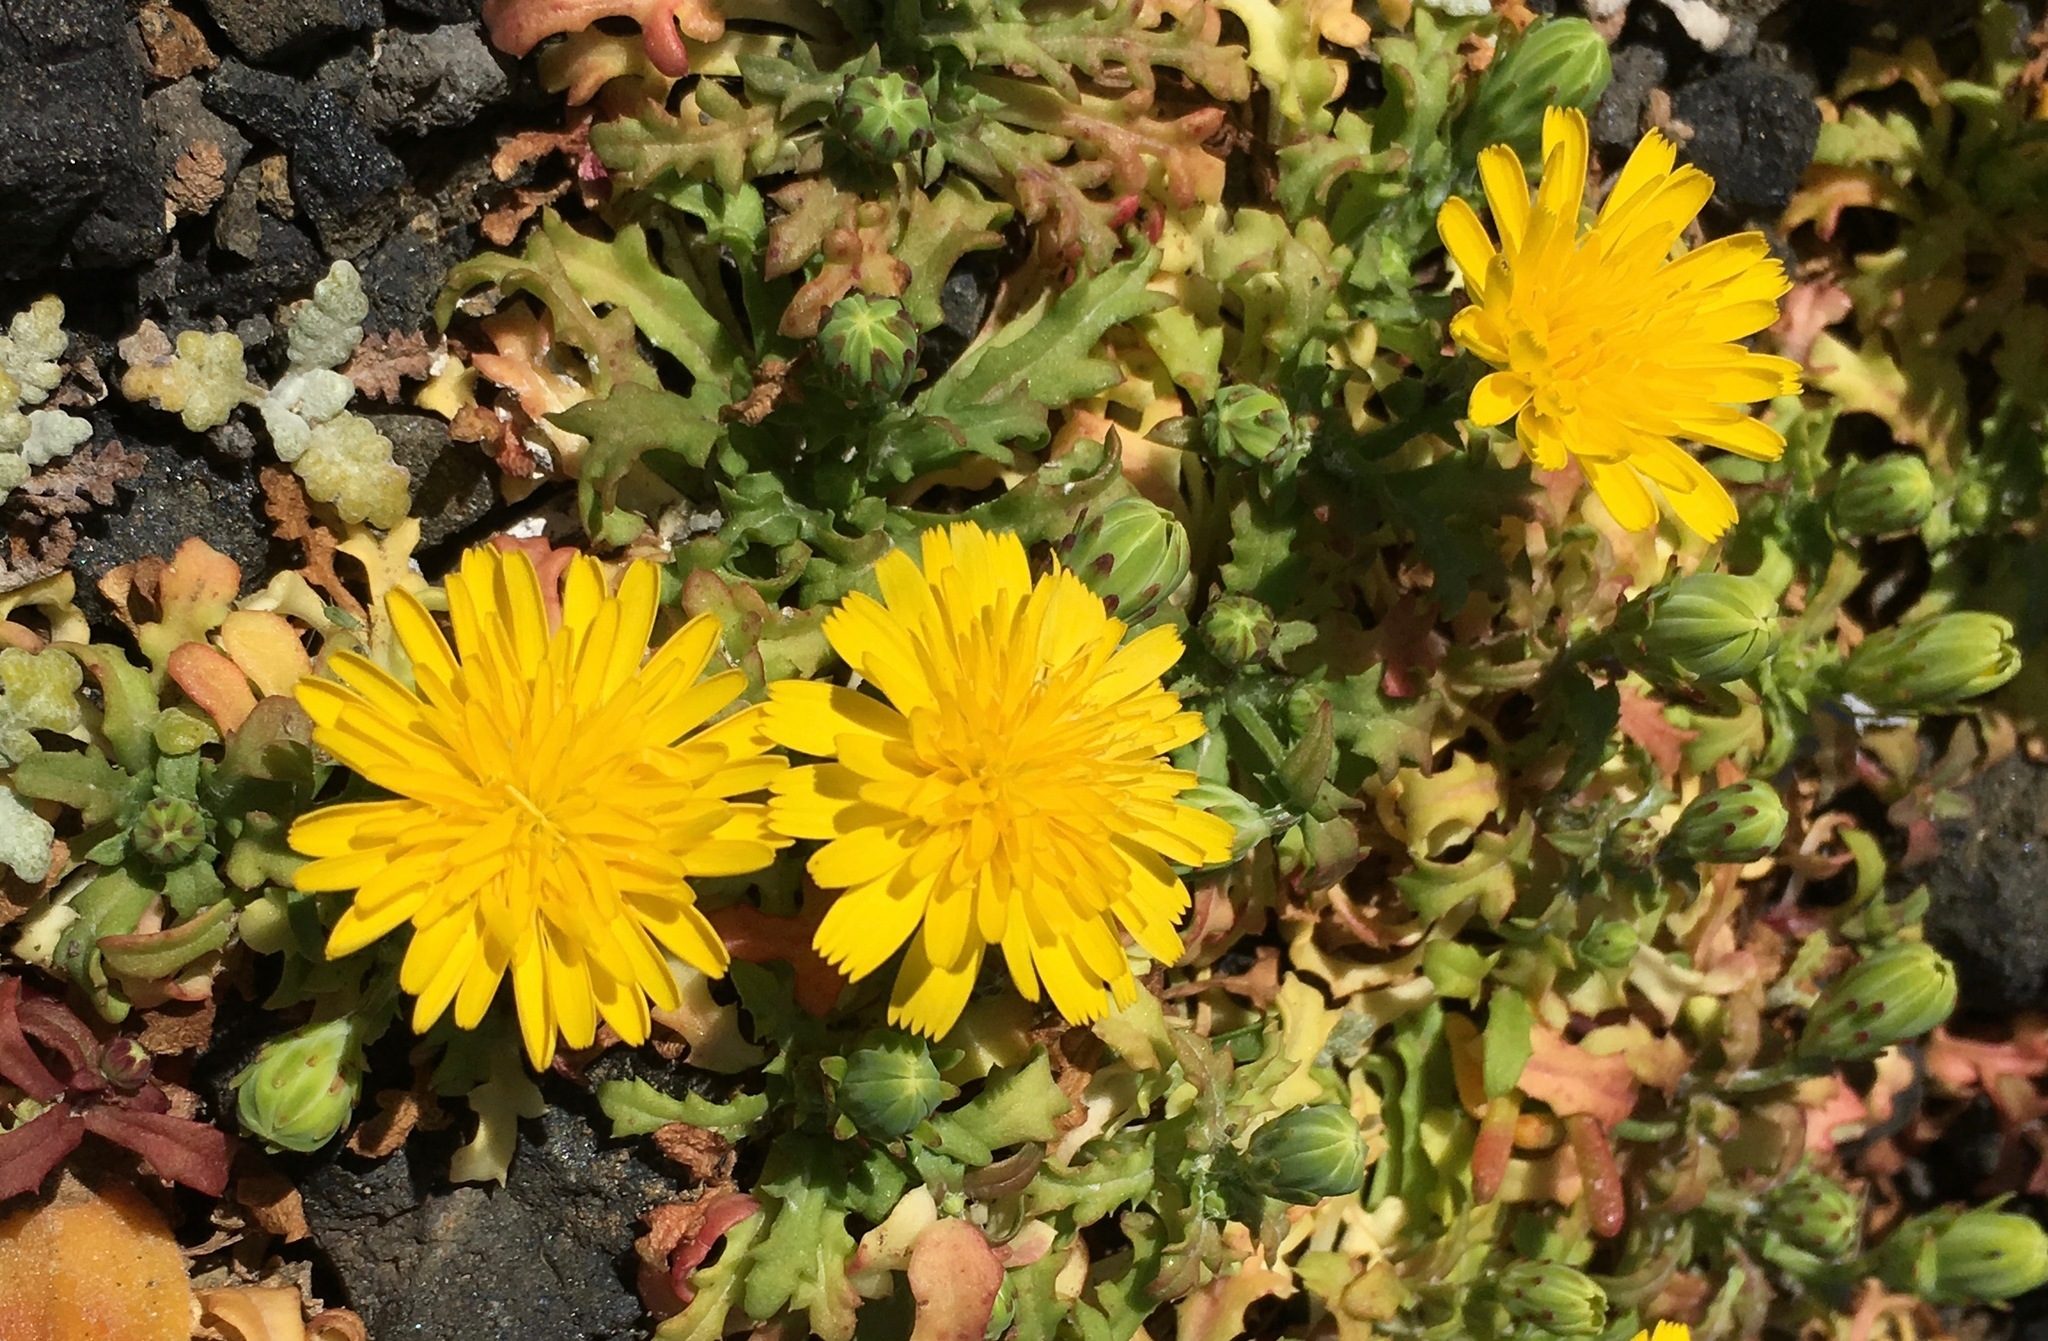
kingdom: Plantae
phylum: Tracheophyta
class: Magnoliopsida
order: Asterales
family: Asteraceae
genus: Malacothrix
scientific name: Malacothrix foliosa
